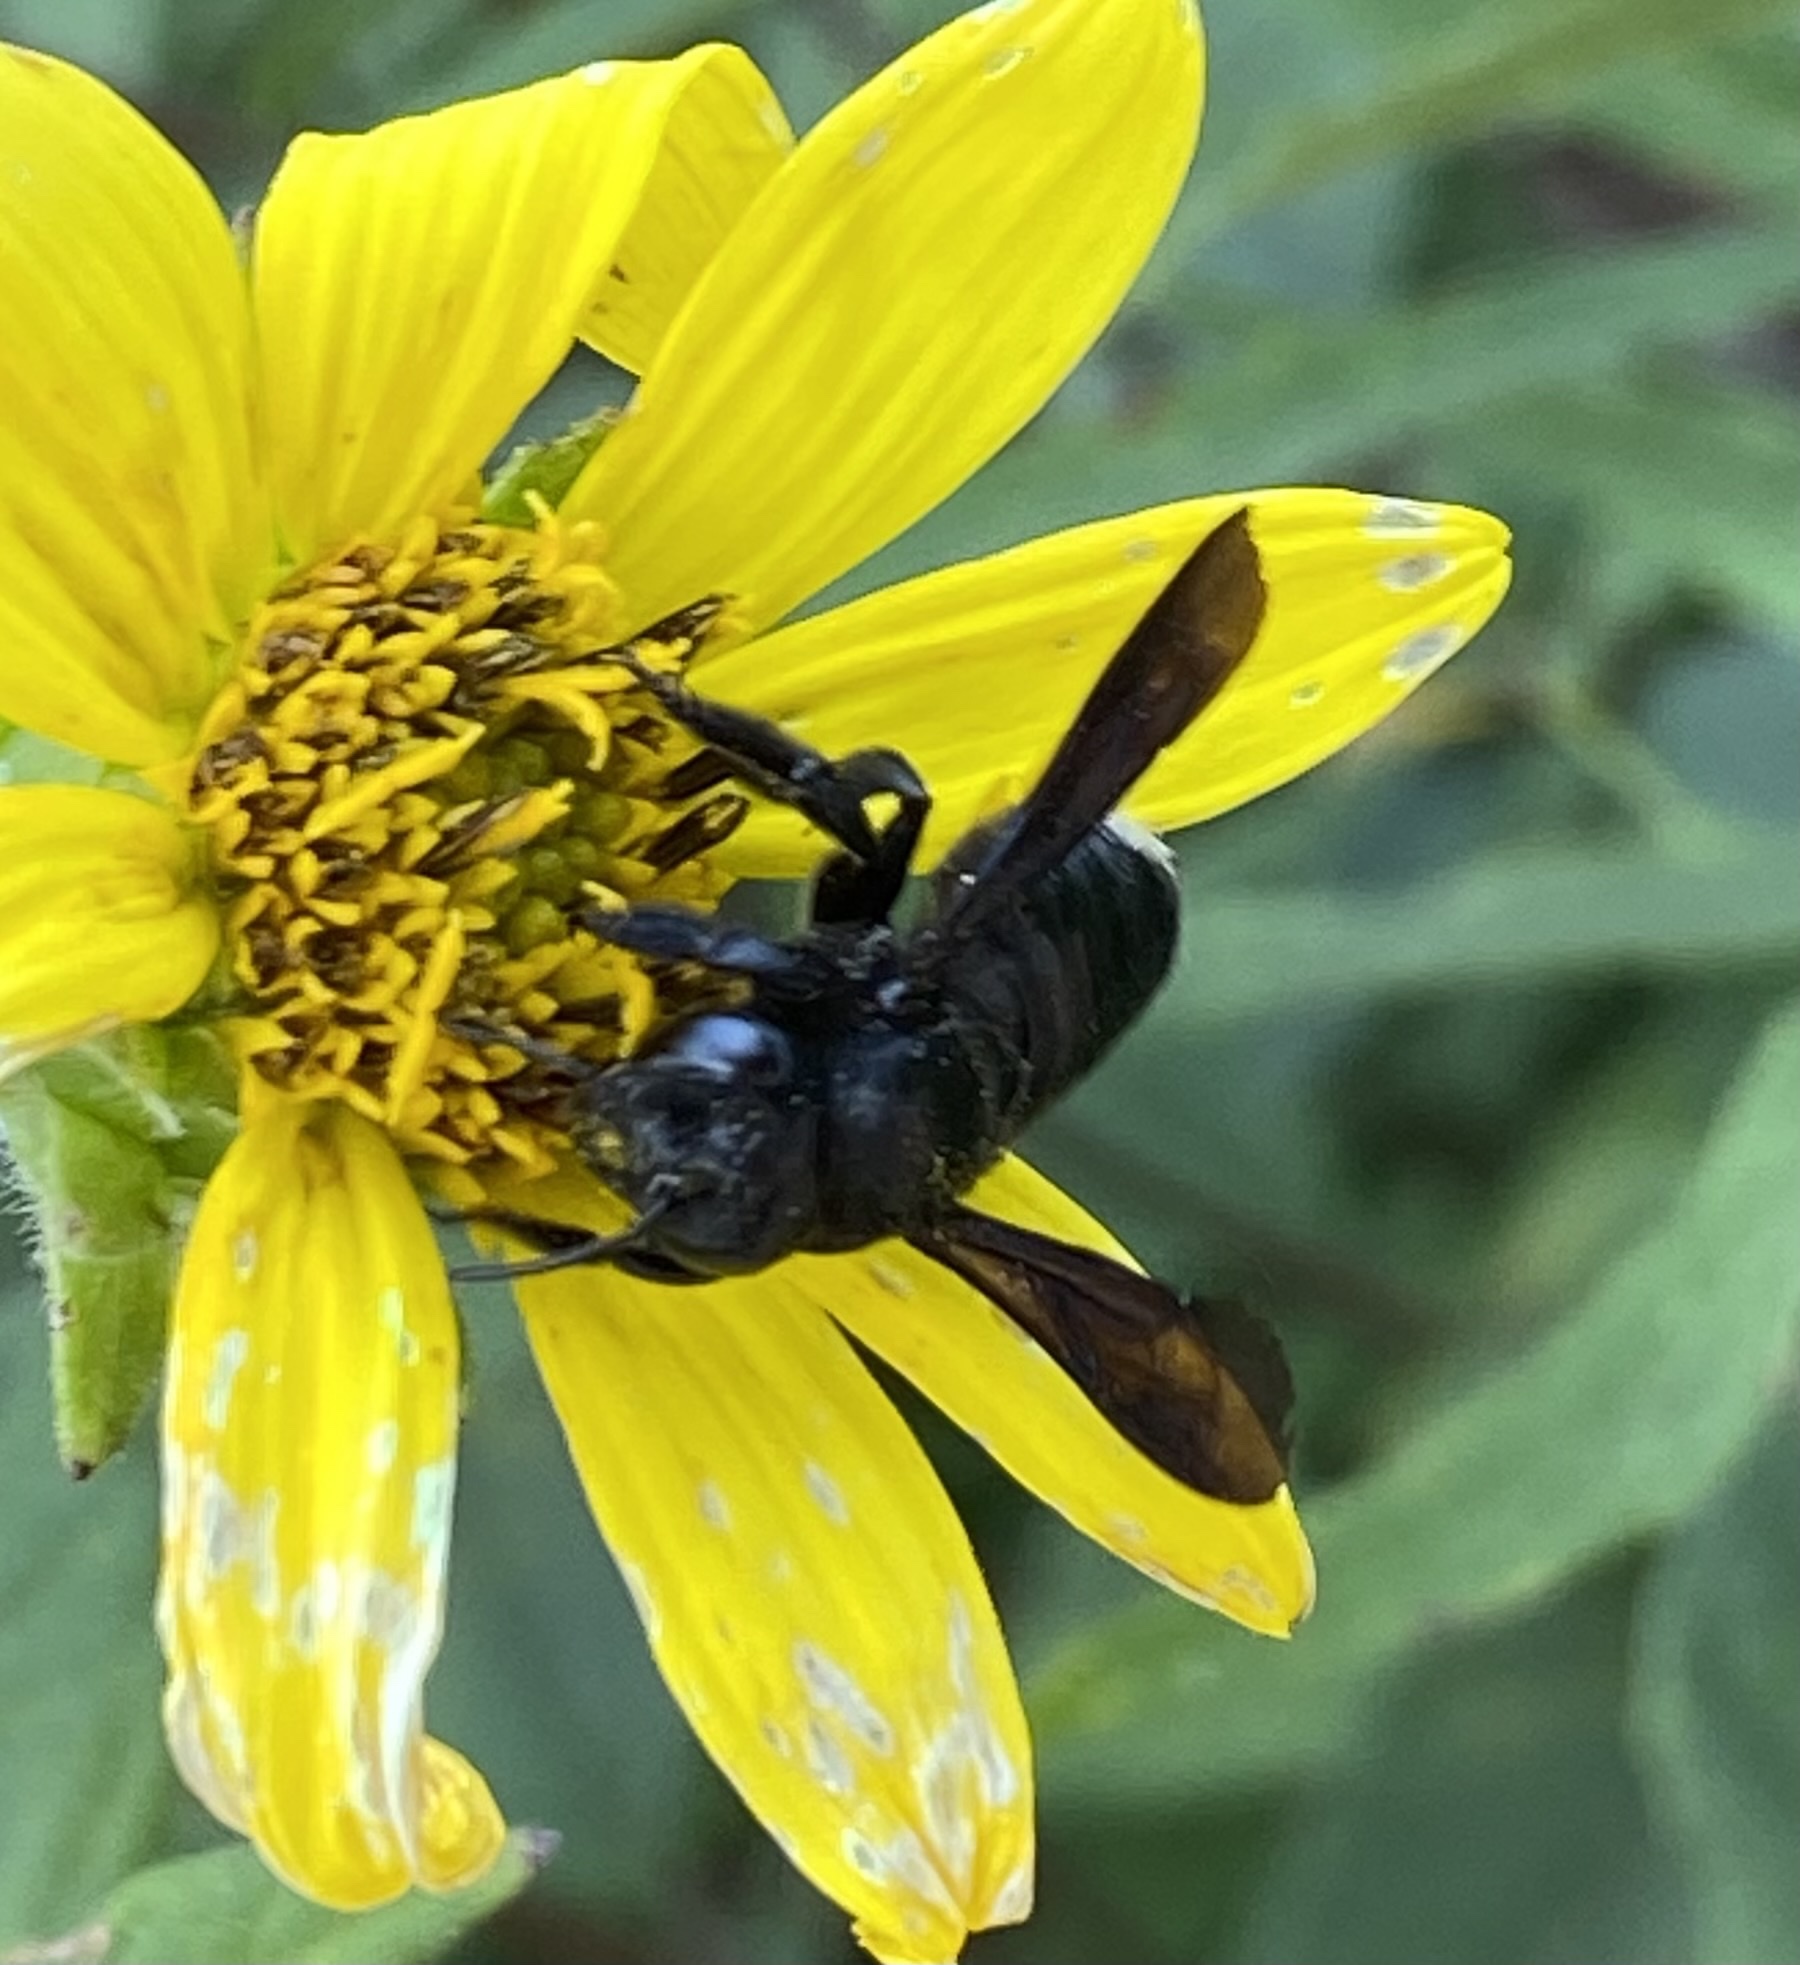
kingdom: Animalia
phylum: Arthropoda
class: Insecta
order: Hymenoptera
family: Megachilidae
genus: Megachile
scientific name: Megachile xylocopoides
